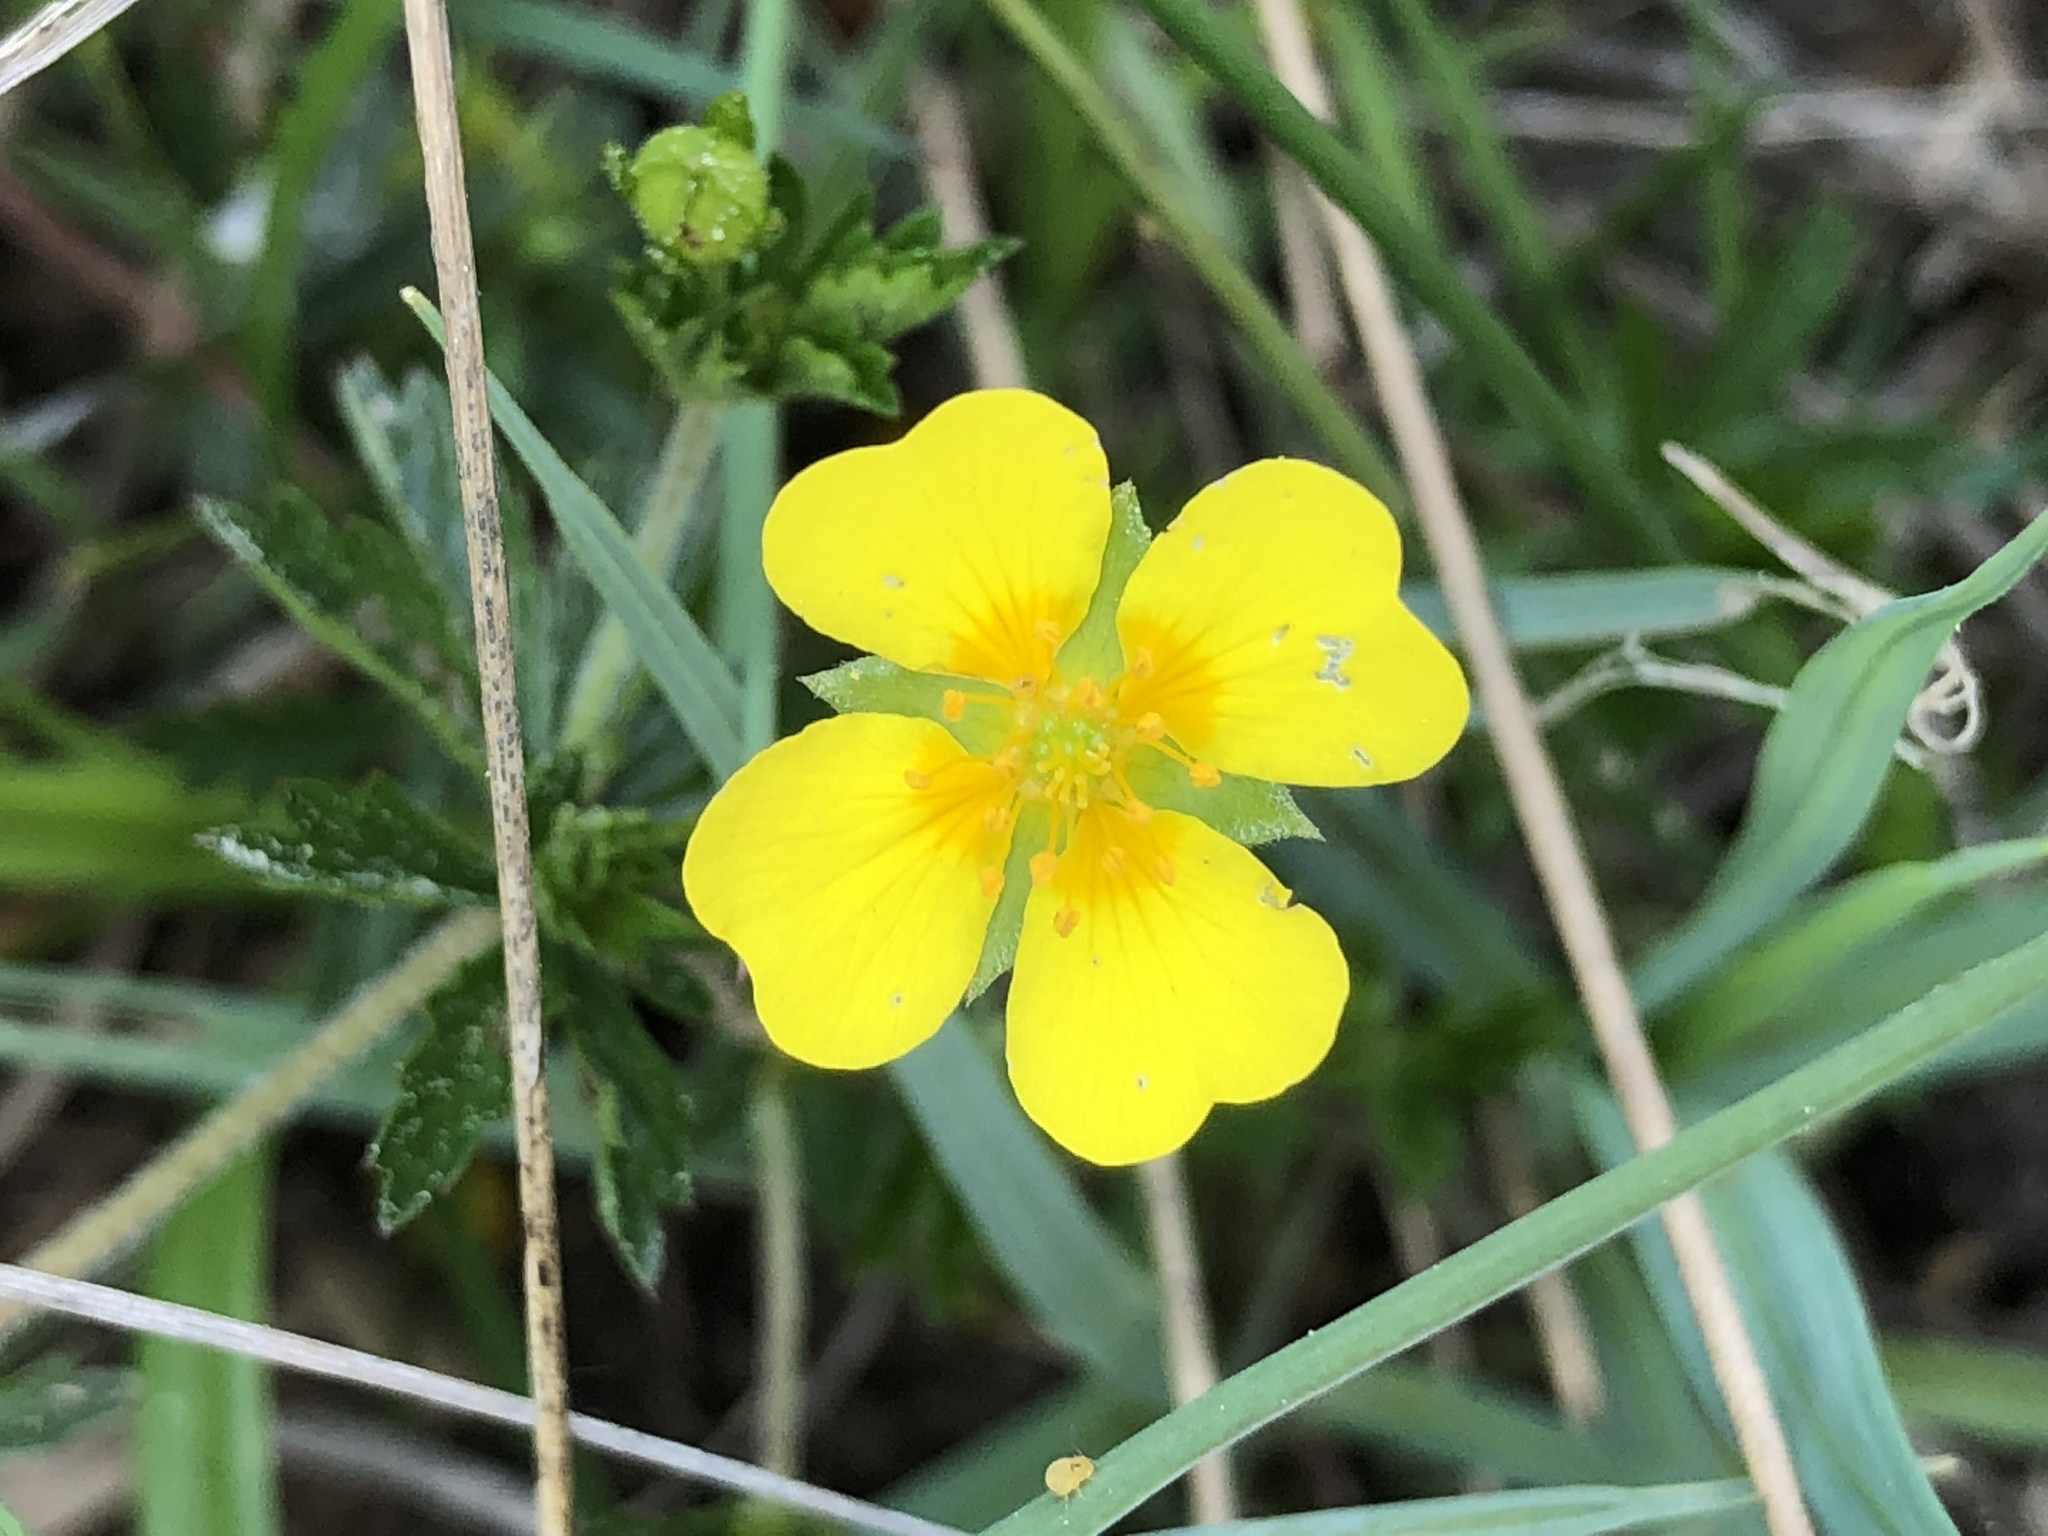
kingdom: Plantae
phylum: Tracheophyta
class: Magnoliopsida
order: Rosales
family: Rosaceae
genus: Potentilla
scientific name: Potentilla erecta
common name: Tormentil
